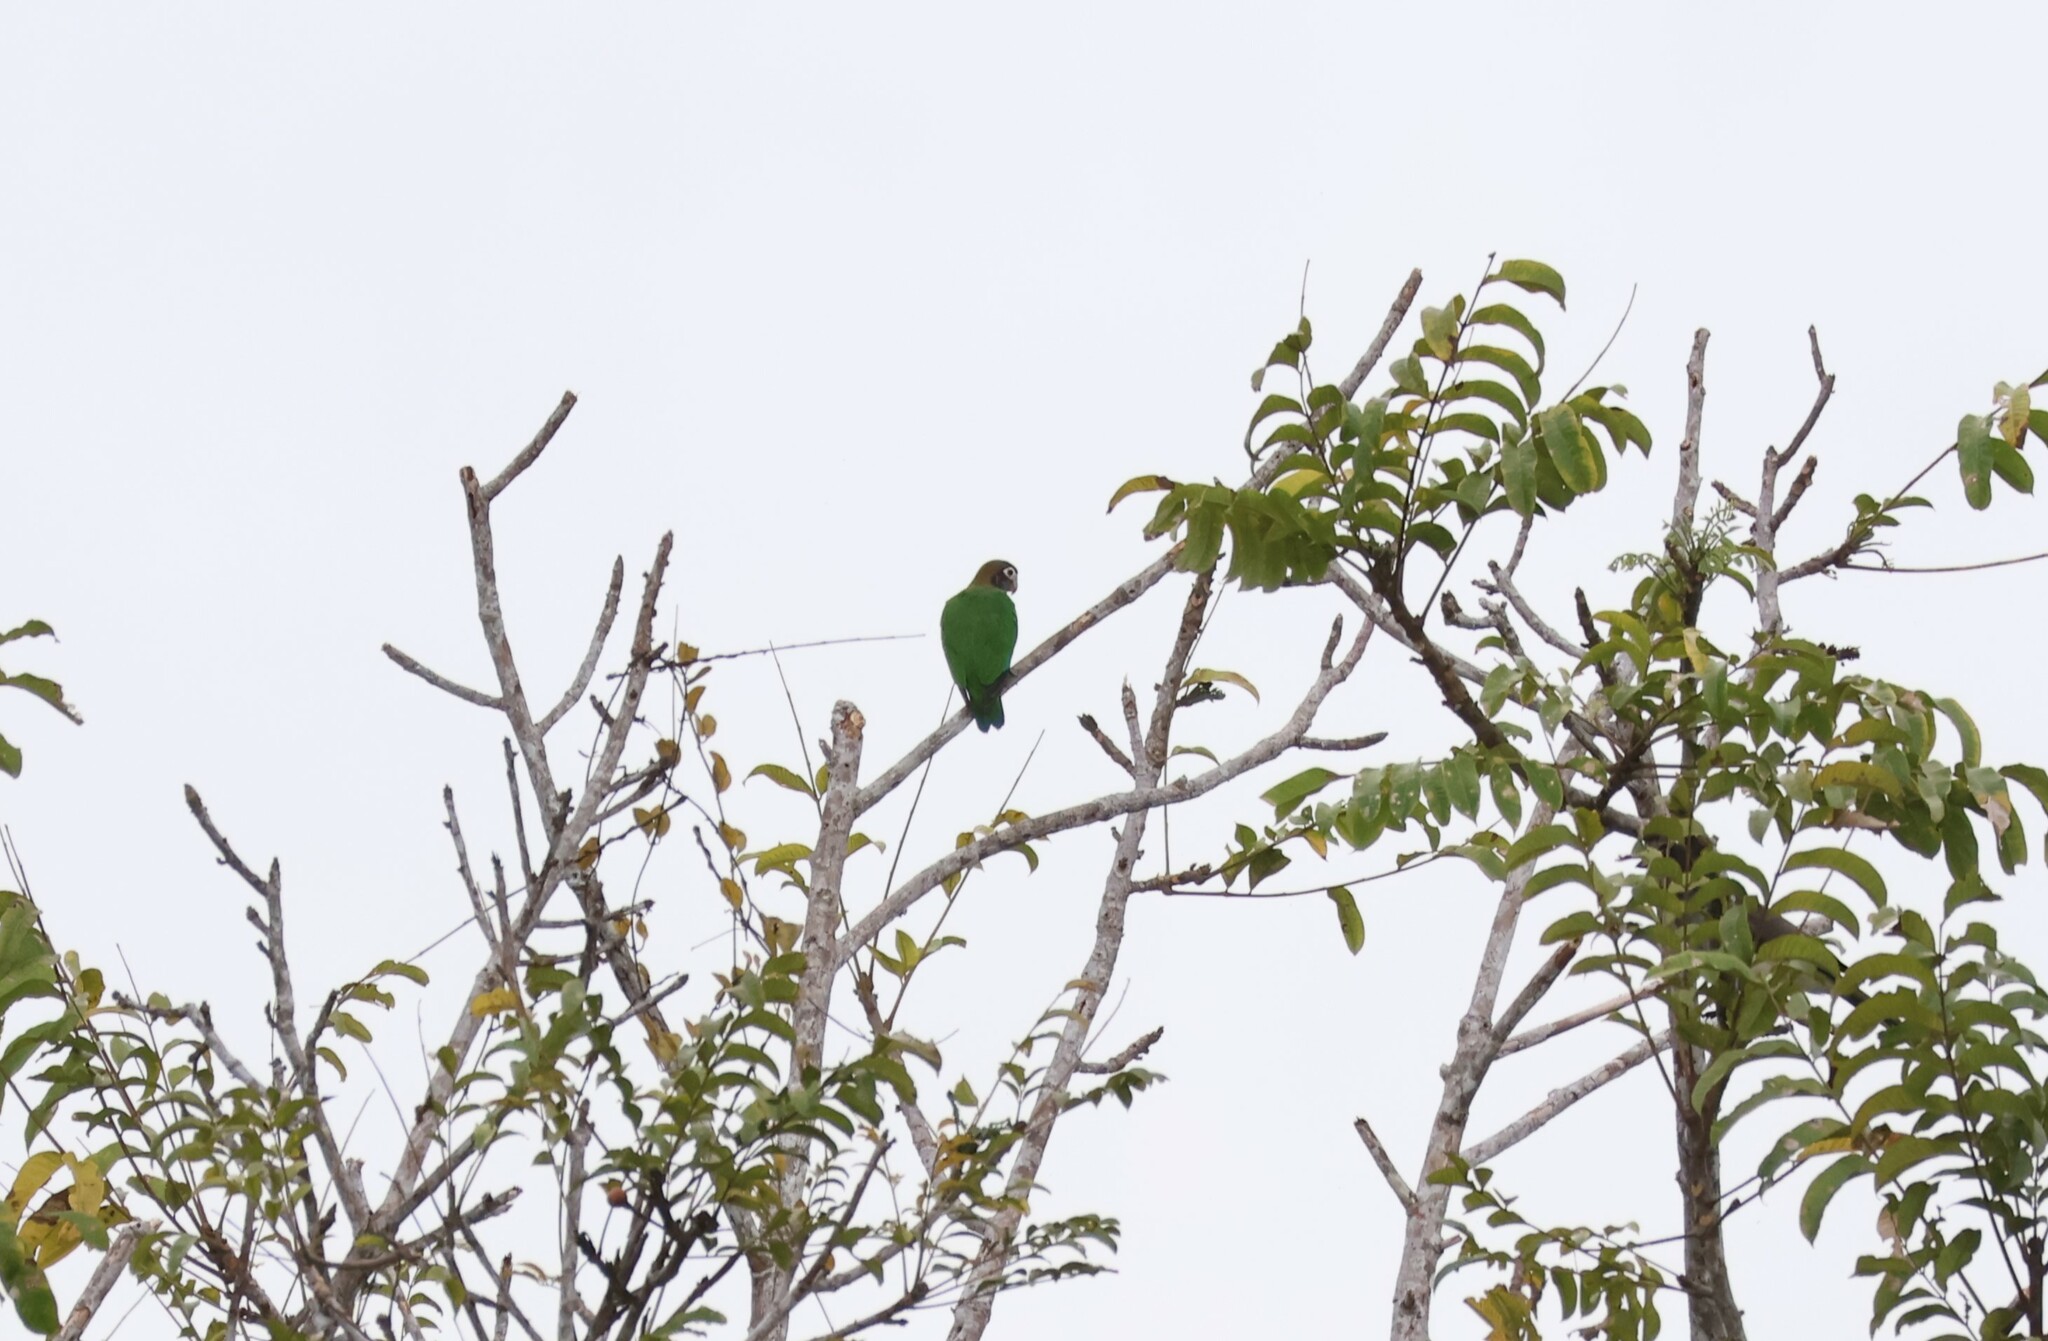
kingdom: Animalia
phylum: Chordata
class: Aves
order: Psittaciformes
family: Psittacidae
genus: Pionopsitta
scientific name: Pionopsitta haematotis
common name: Brown-hooded parrot
